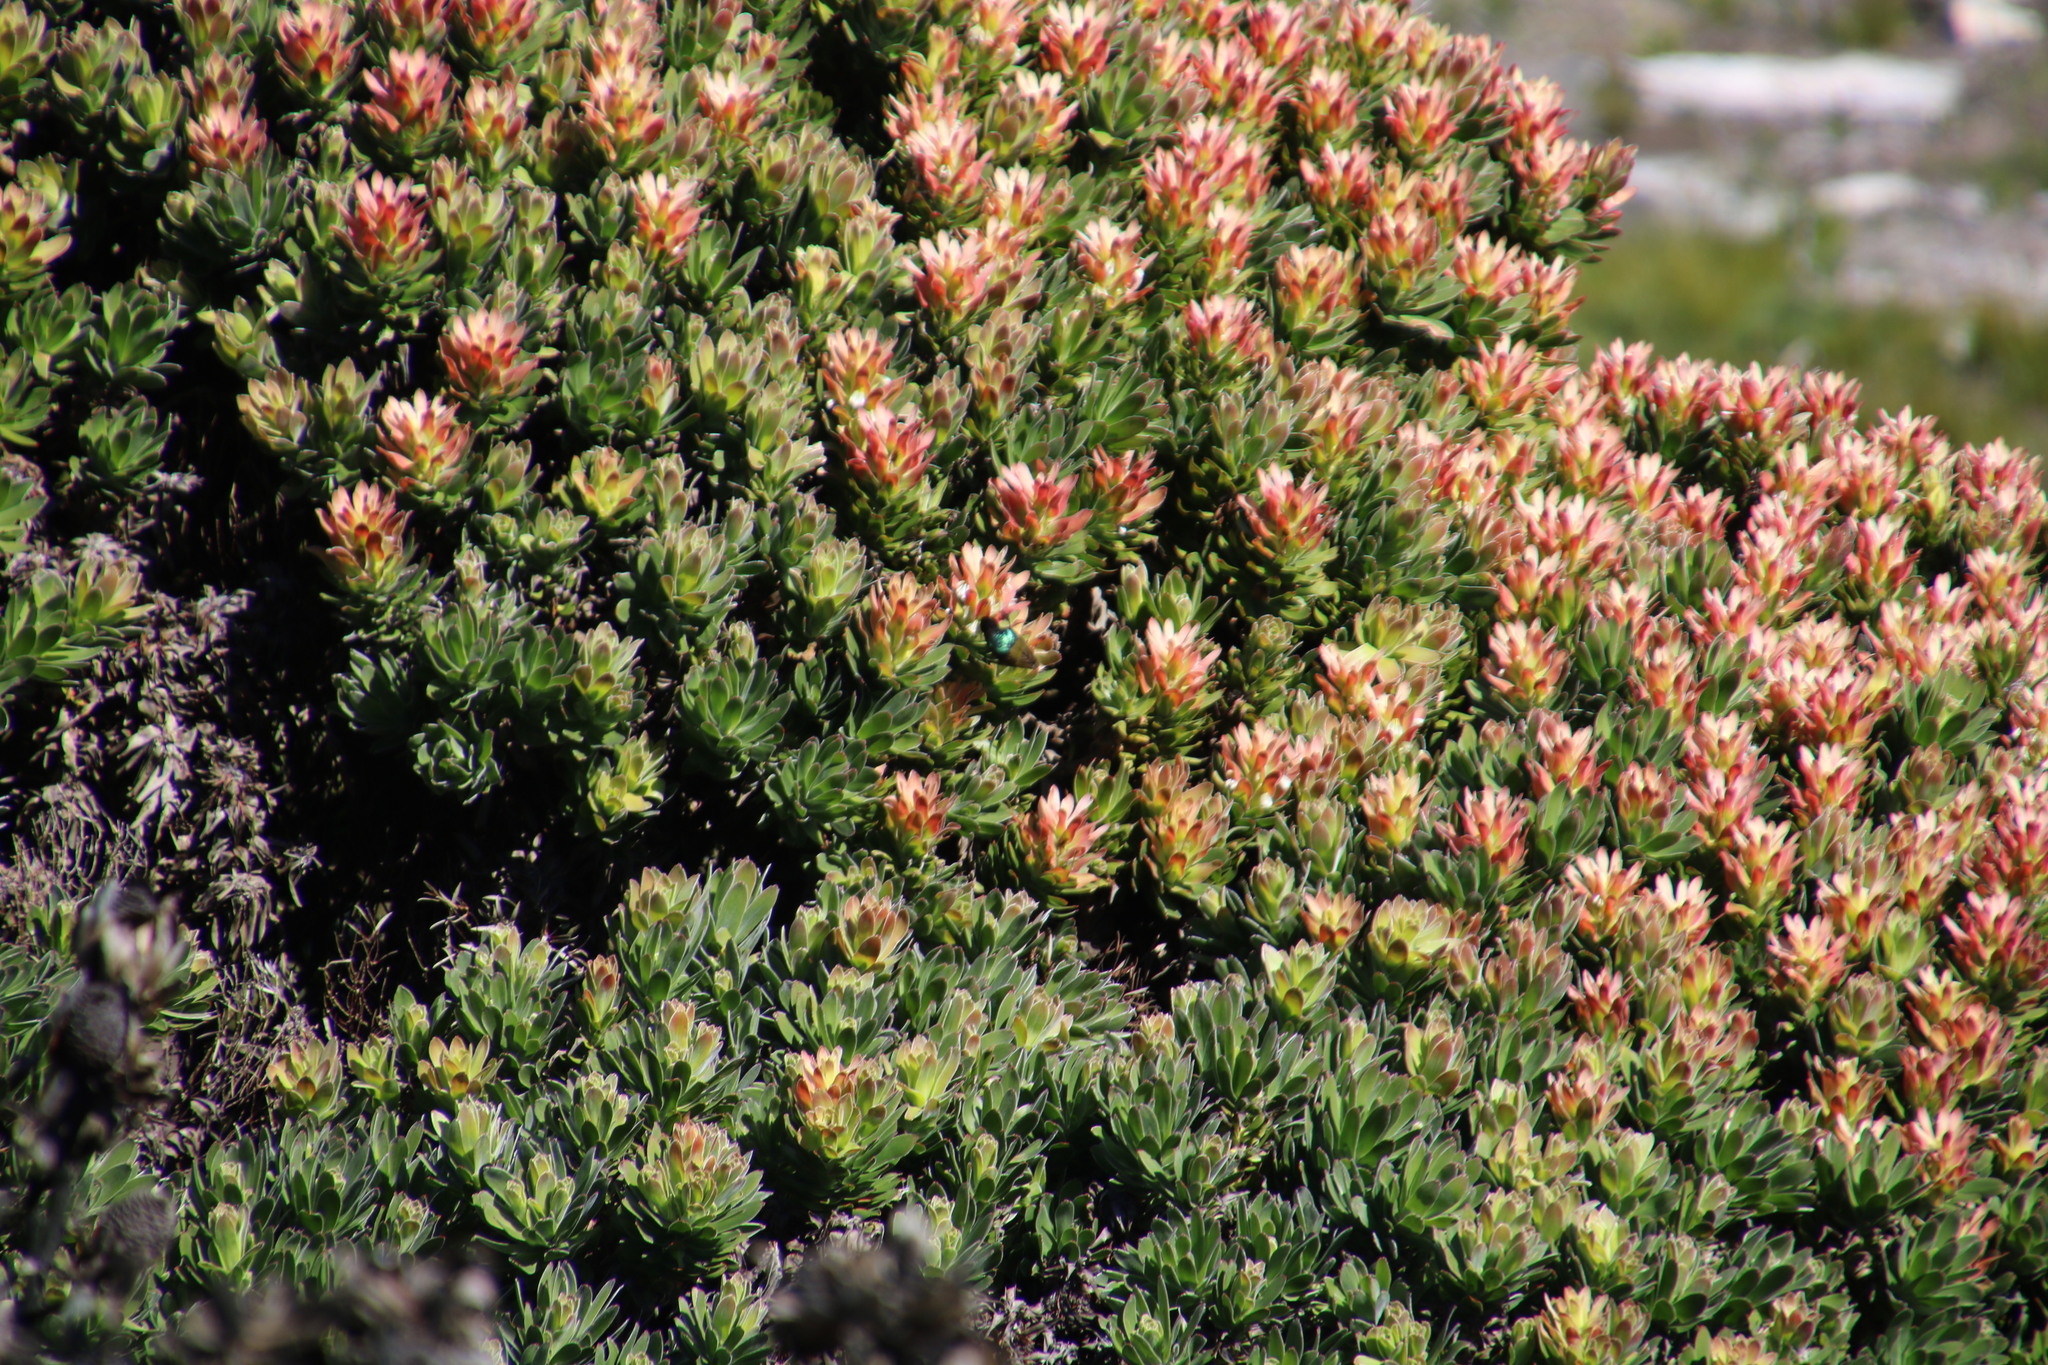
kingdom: Plantae
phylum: Tracheophyta
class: Magnoliopsida
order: Proteales
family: Proteaceae
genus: Mimetes
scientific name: Mimetes fimbriifolius
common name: Fringed bottlebrush
